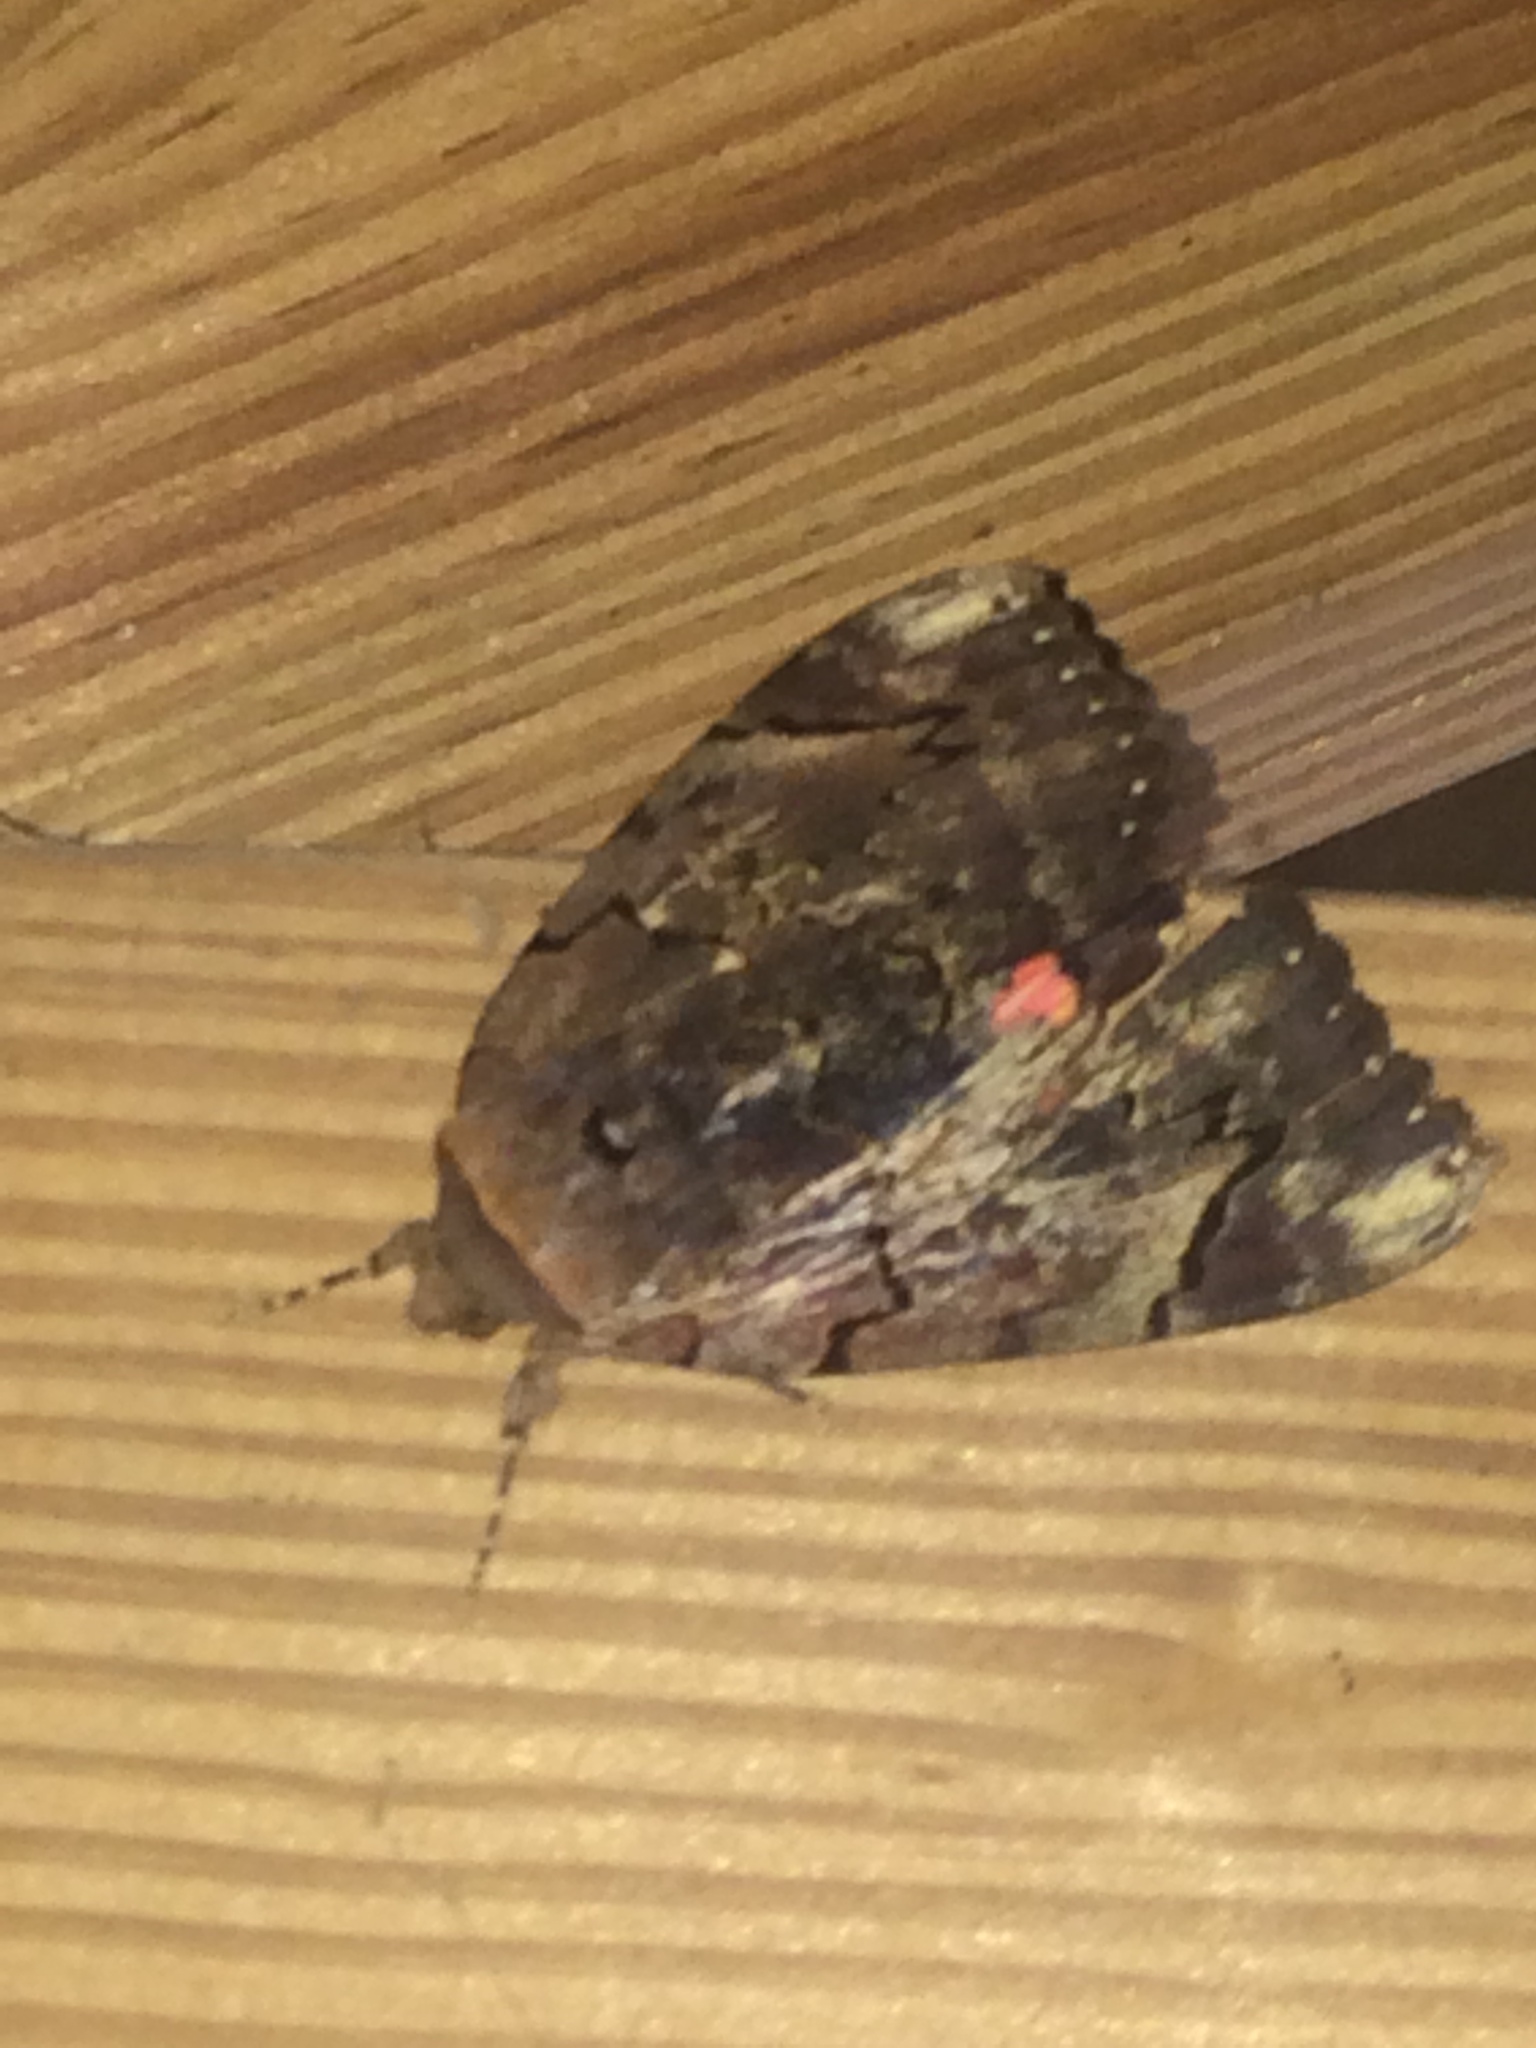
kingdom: Animalia
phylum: Arthropoda
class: Insecta
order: Lepidoptera
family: Erebidae
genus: Catocala
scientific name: Catocala carissima
